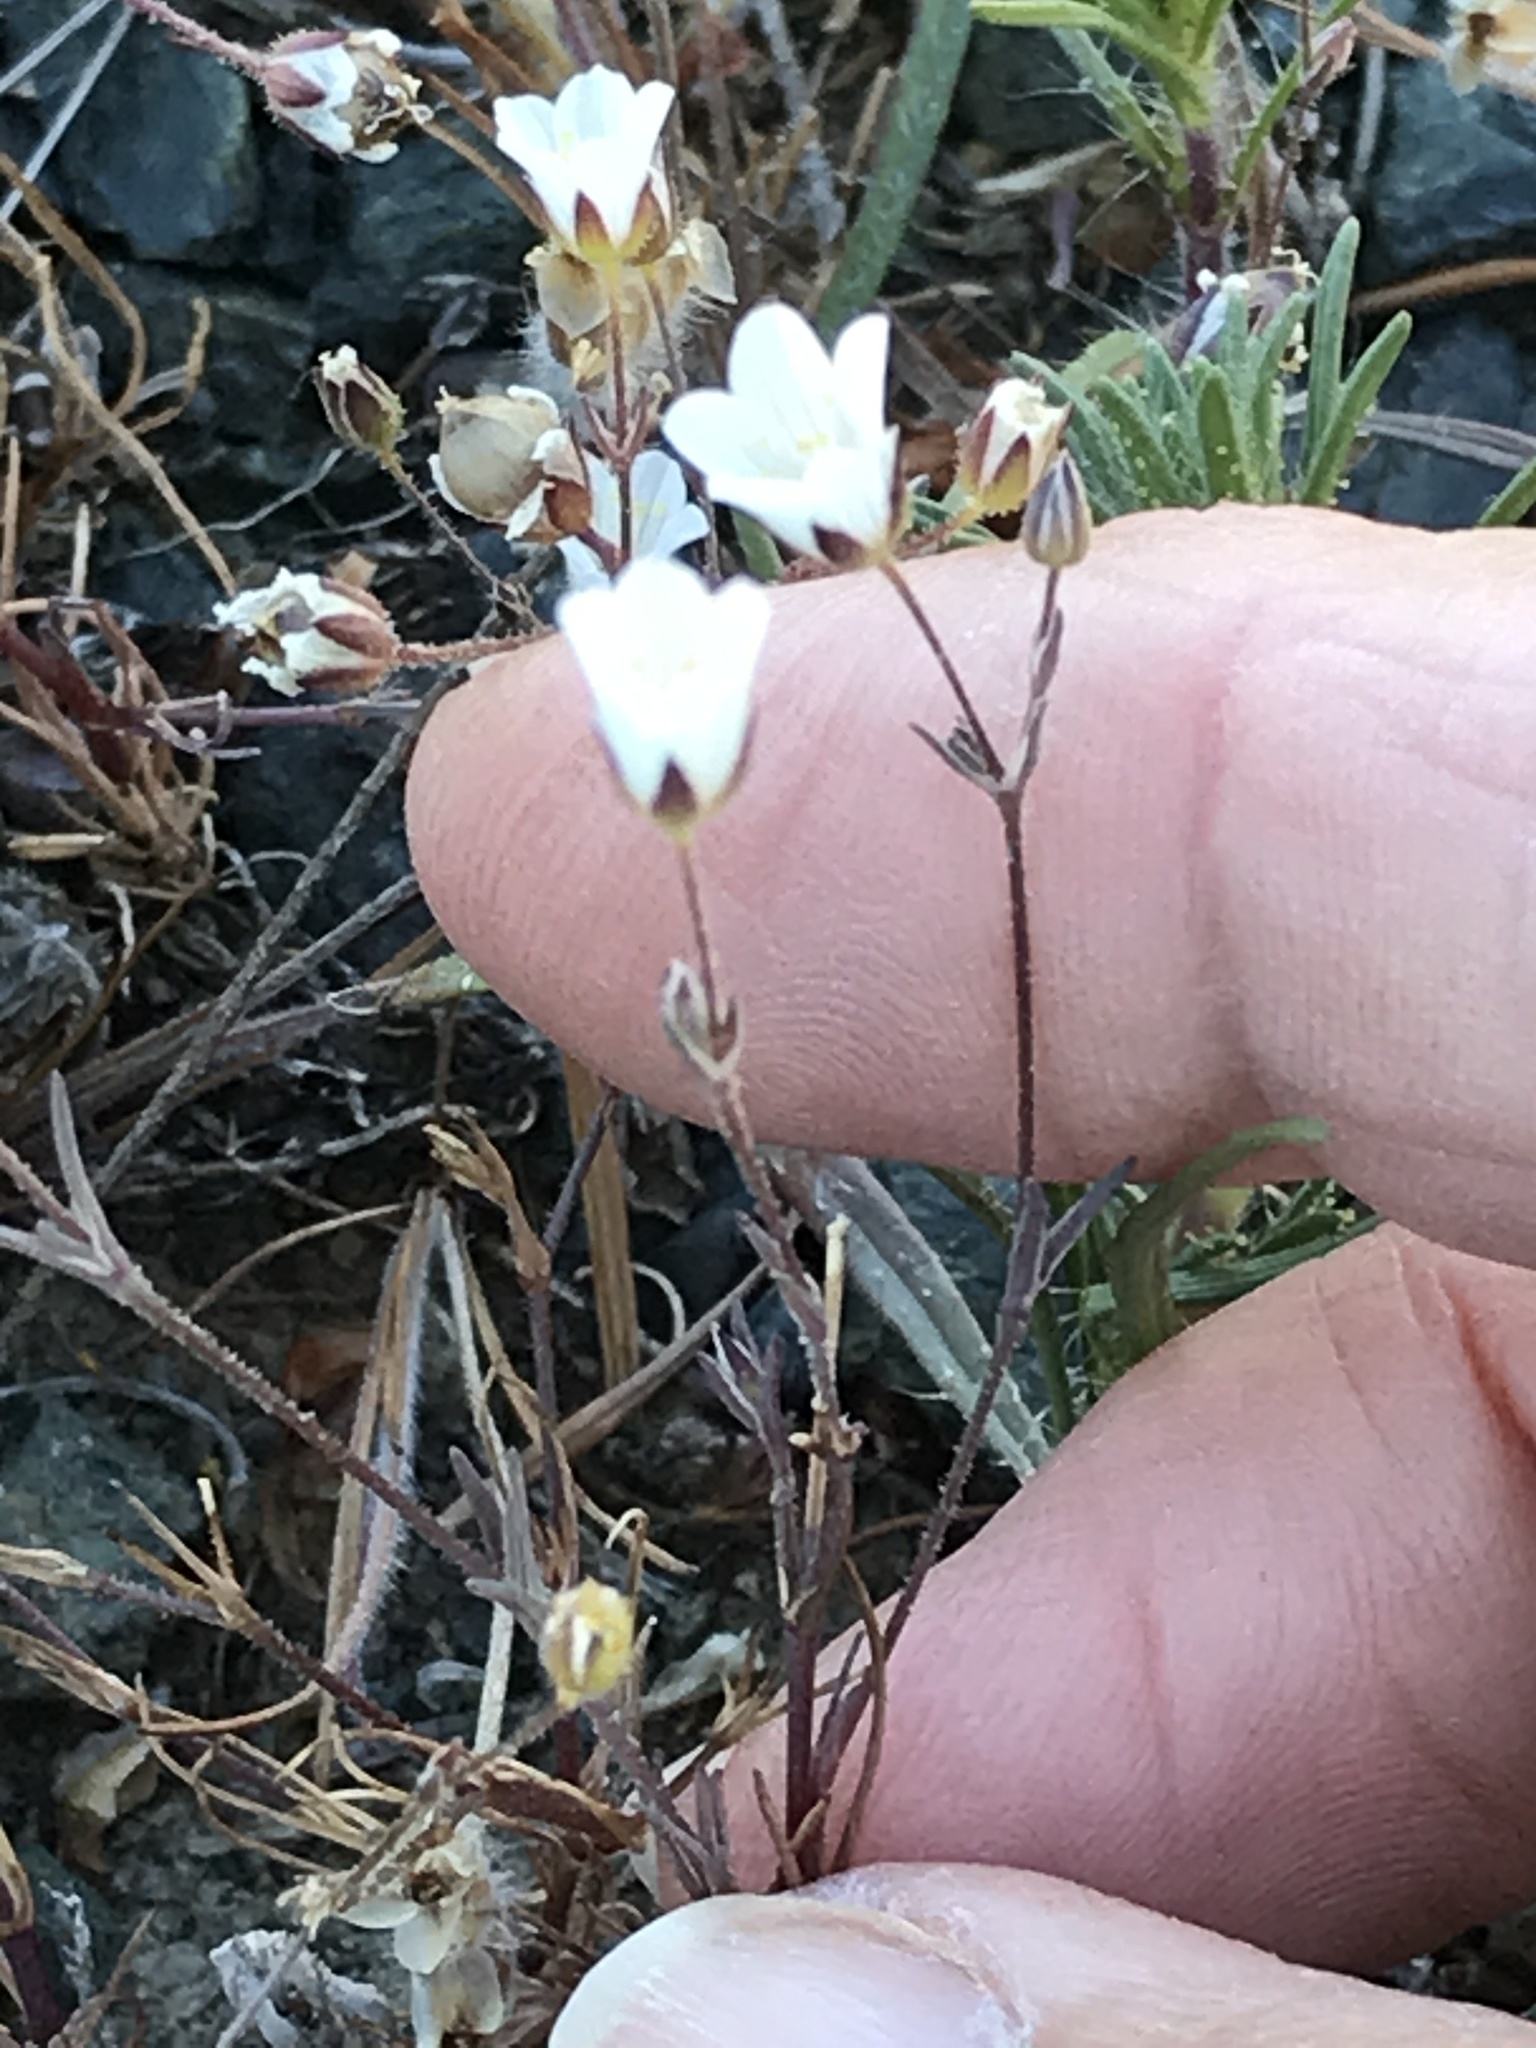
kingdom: Plantae
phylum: Tracheophyta
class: Magnoliopsida
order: Caryophyllales
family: Caryophyllaceae
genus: Sabulina
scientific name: Sabulina douglasii
